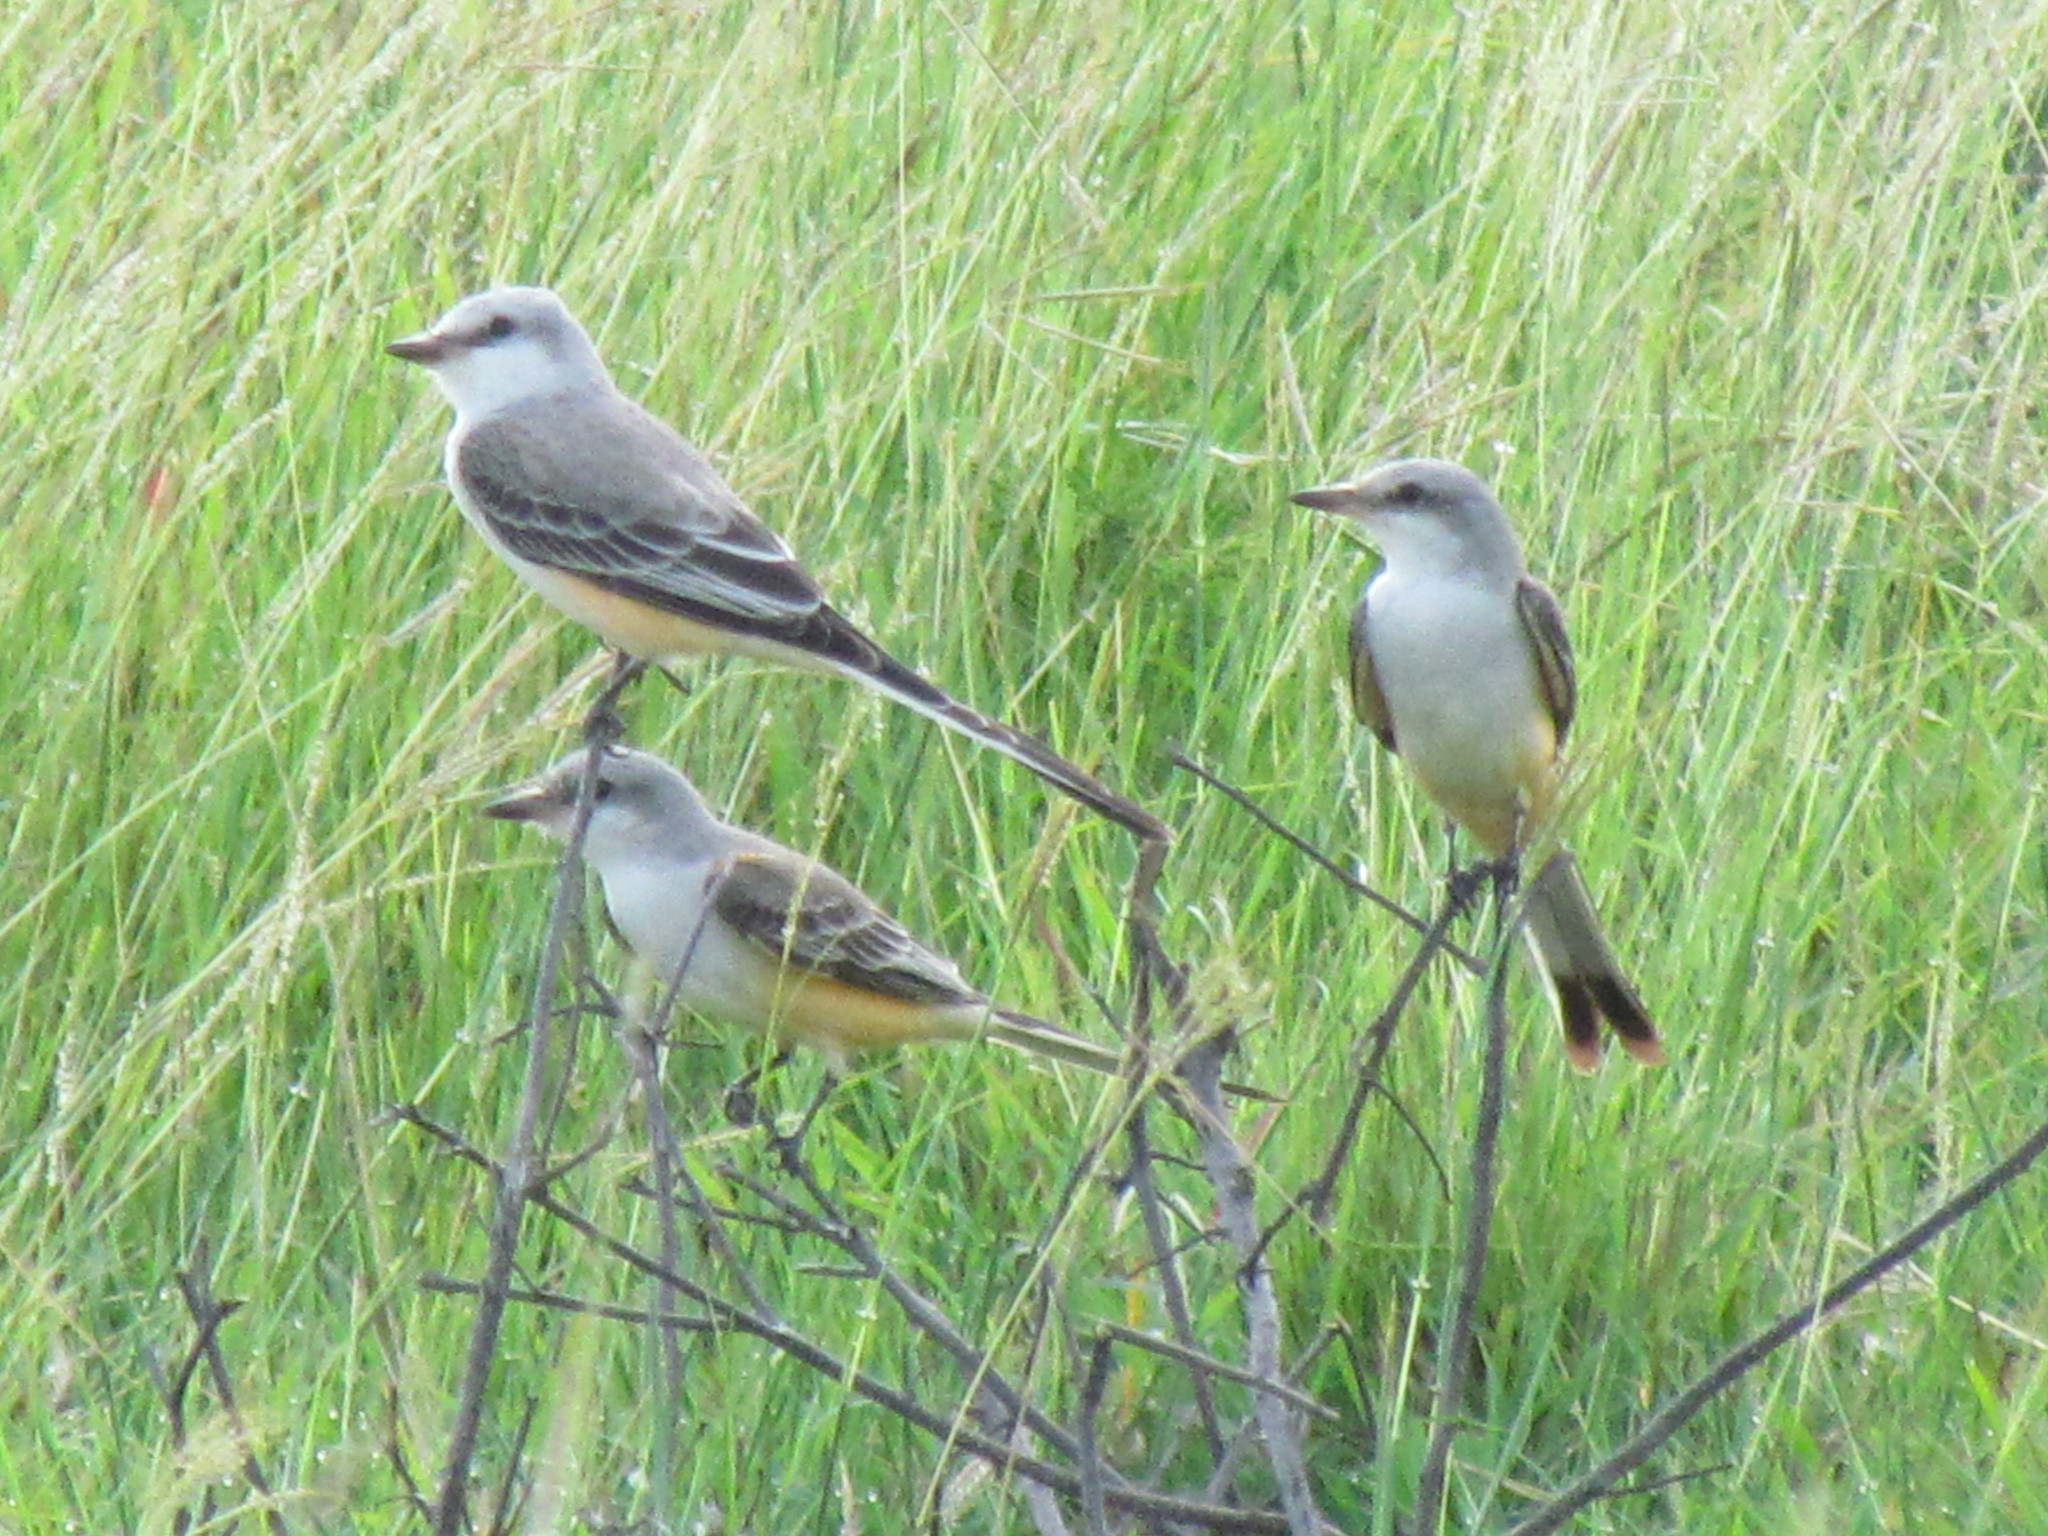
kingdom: Animalia
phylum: Chordata
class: Aves
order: Passeriformes
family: Tyrannidae
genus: Tyrannus
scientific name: Tyrannus forficatus
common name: Scissor-tailed flycatcher
